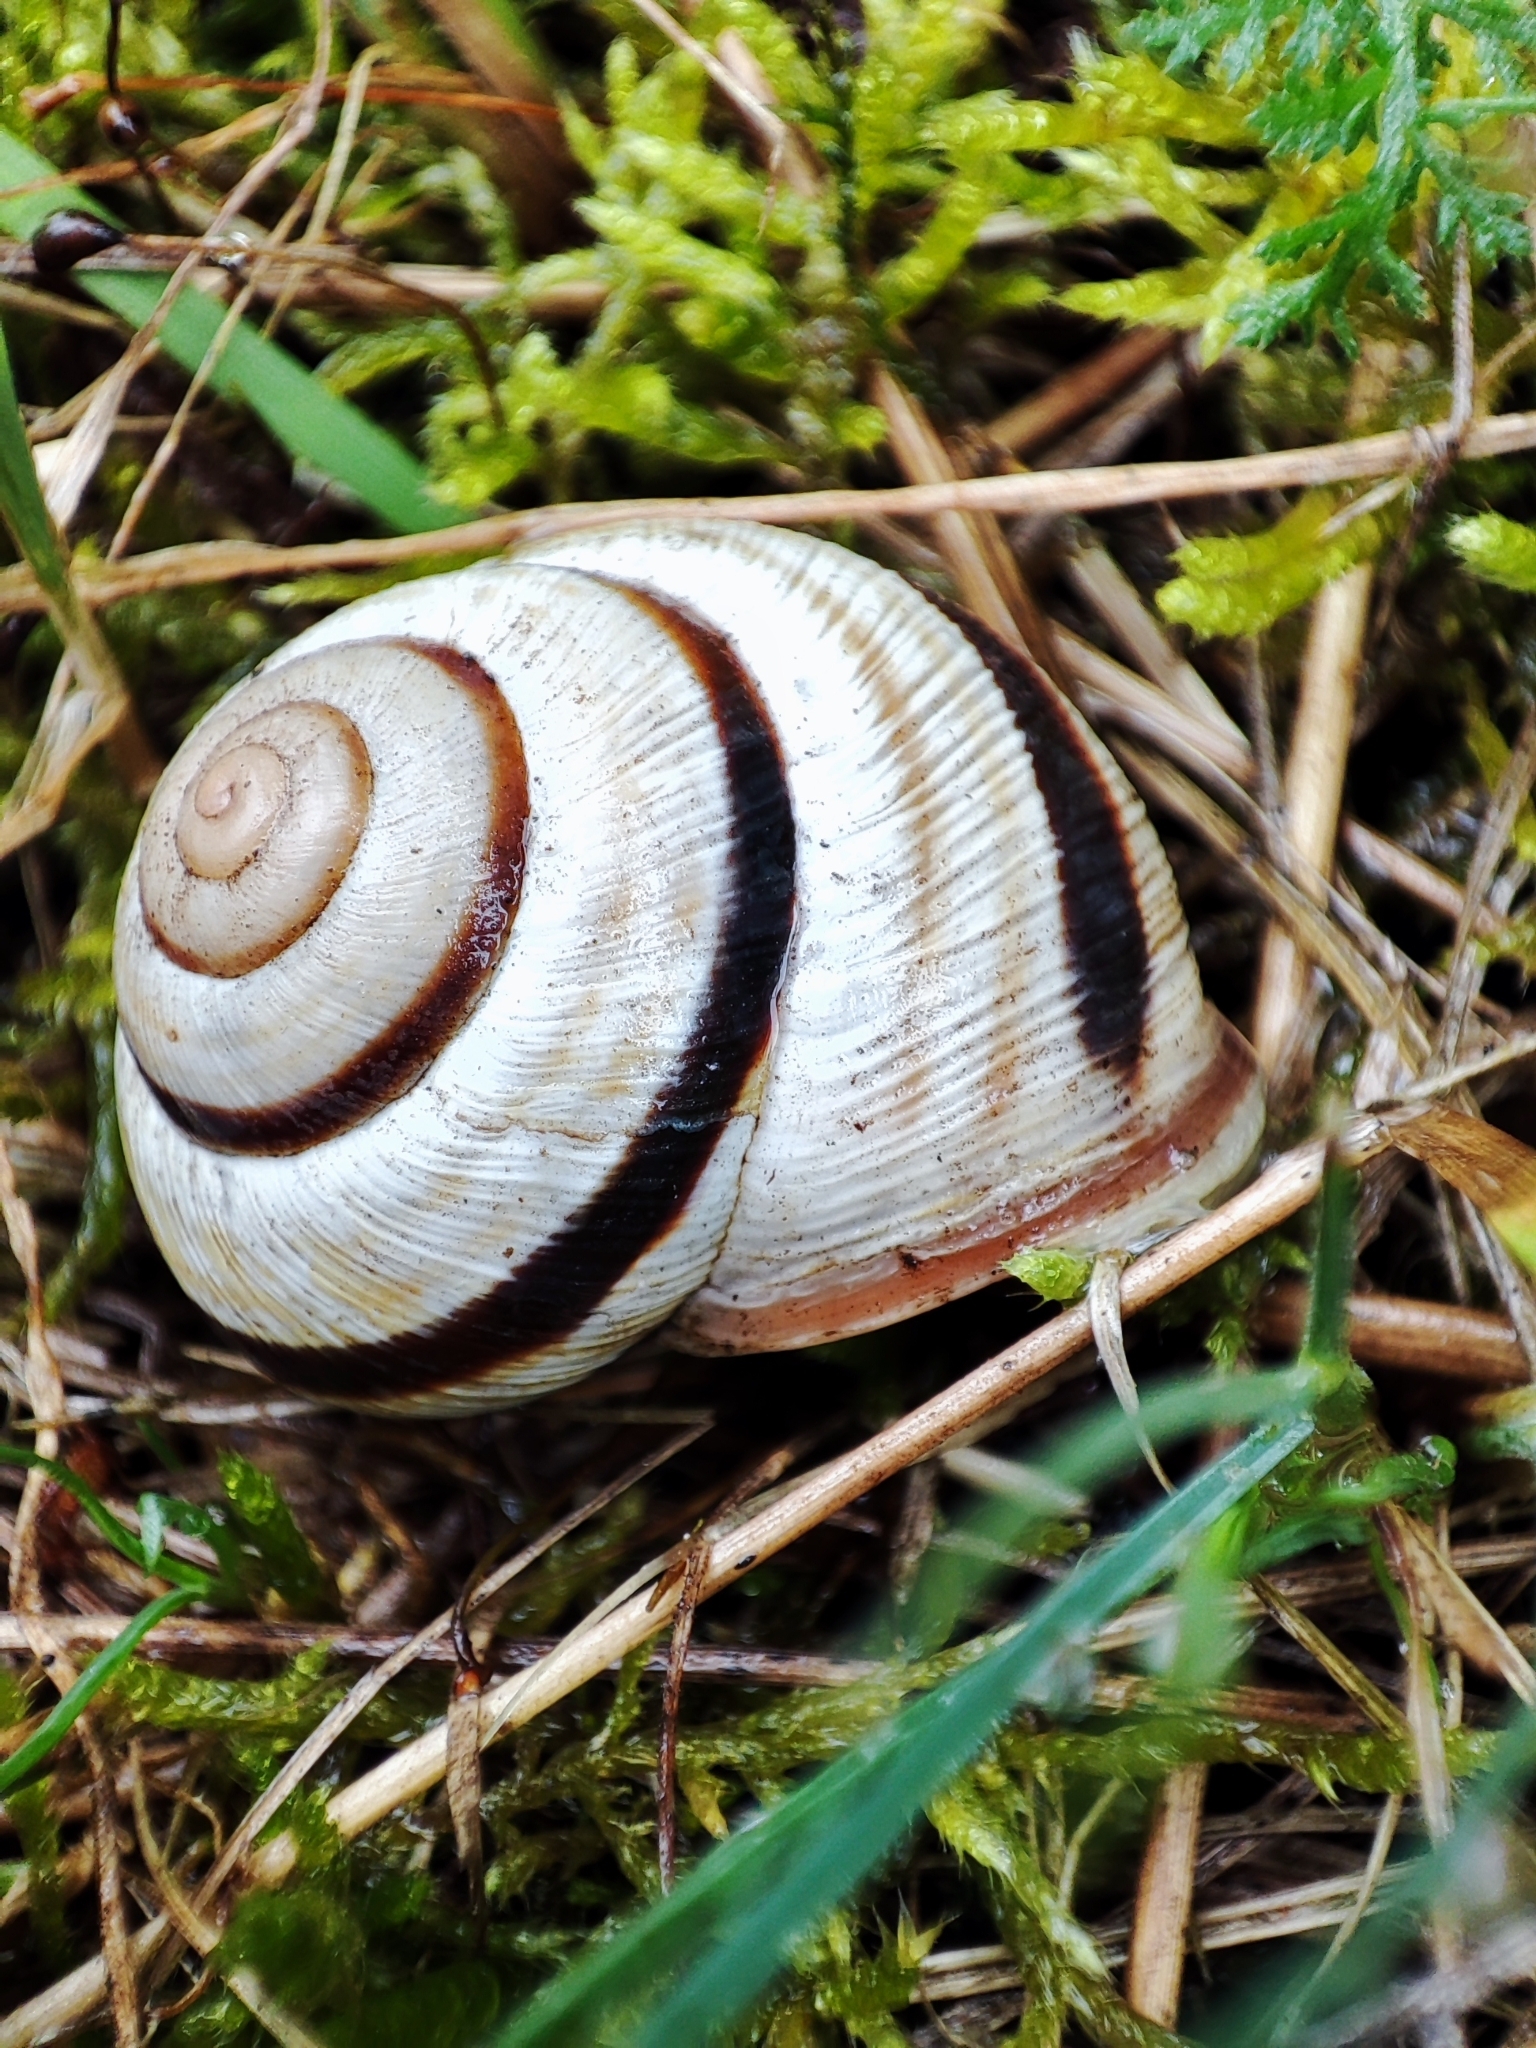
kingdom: Animalia
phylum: Mollusca
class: Gastropoda
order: Stylommatophora
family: Helicidae
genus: Caucasotachea
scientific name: Caucasotachea vindobonensis
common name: European helicid land snail
